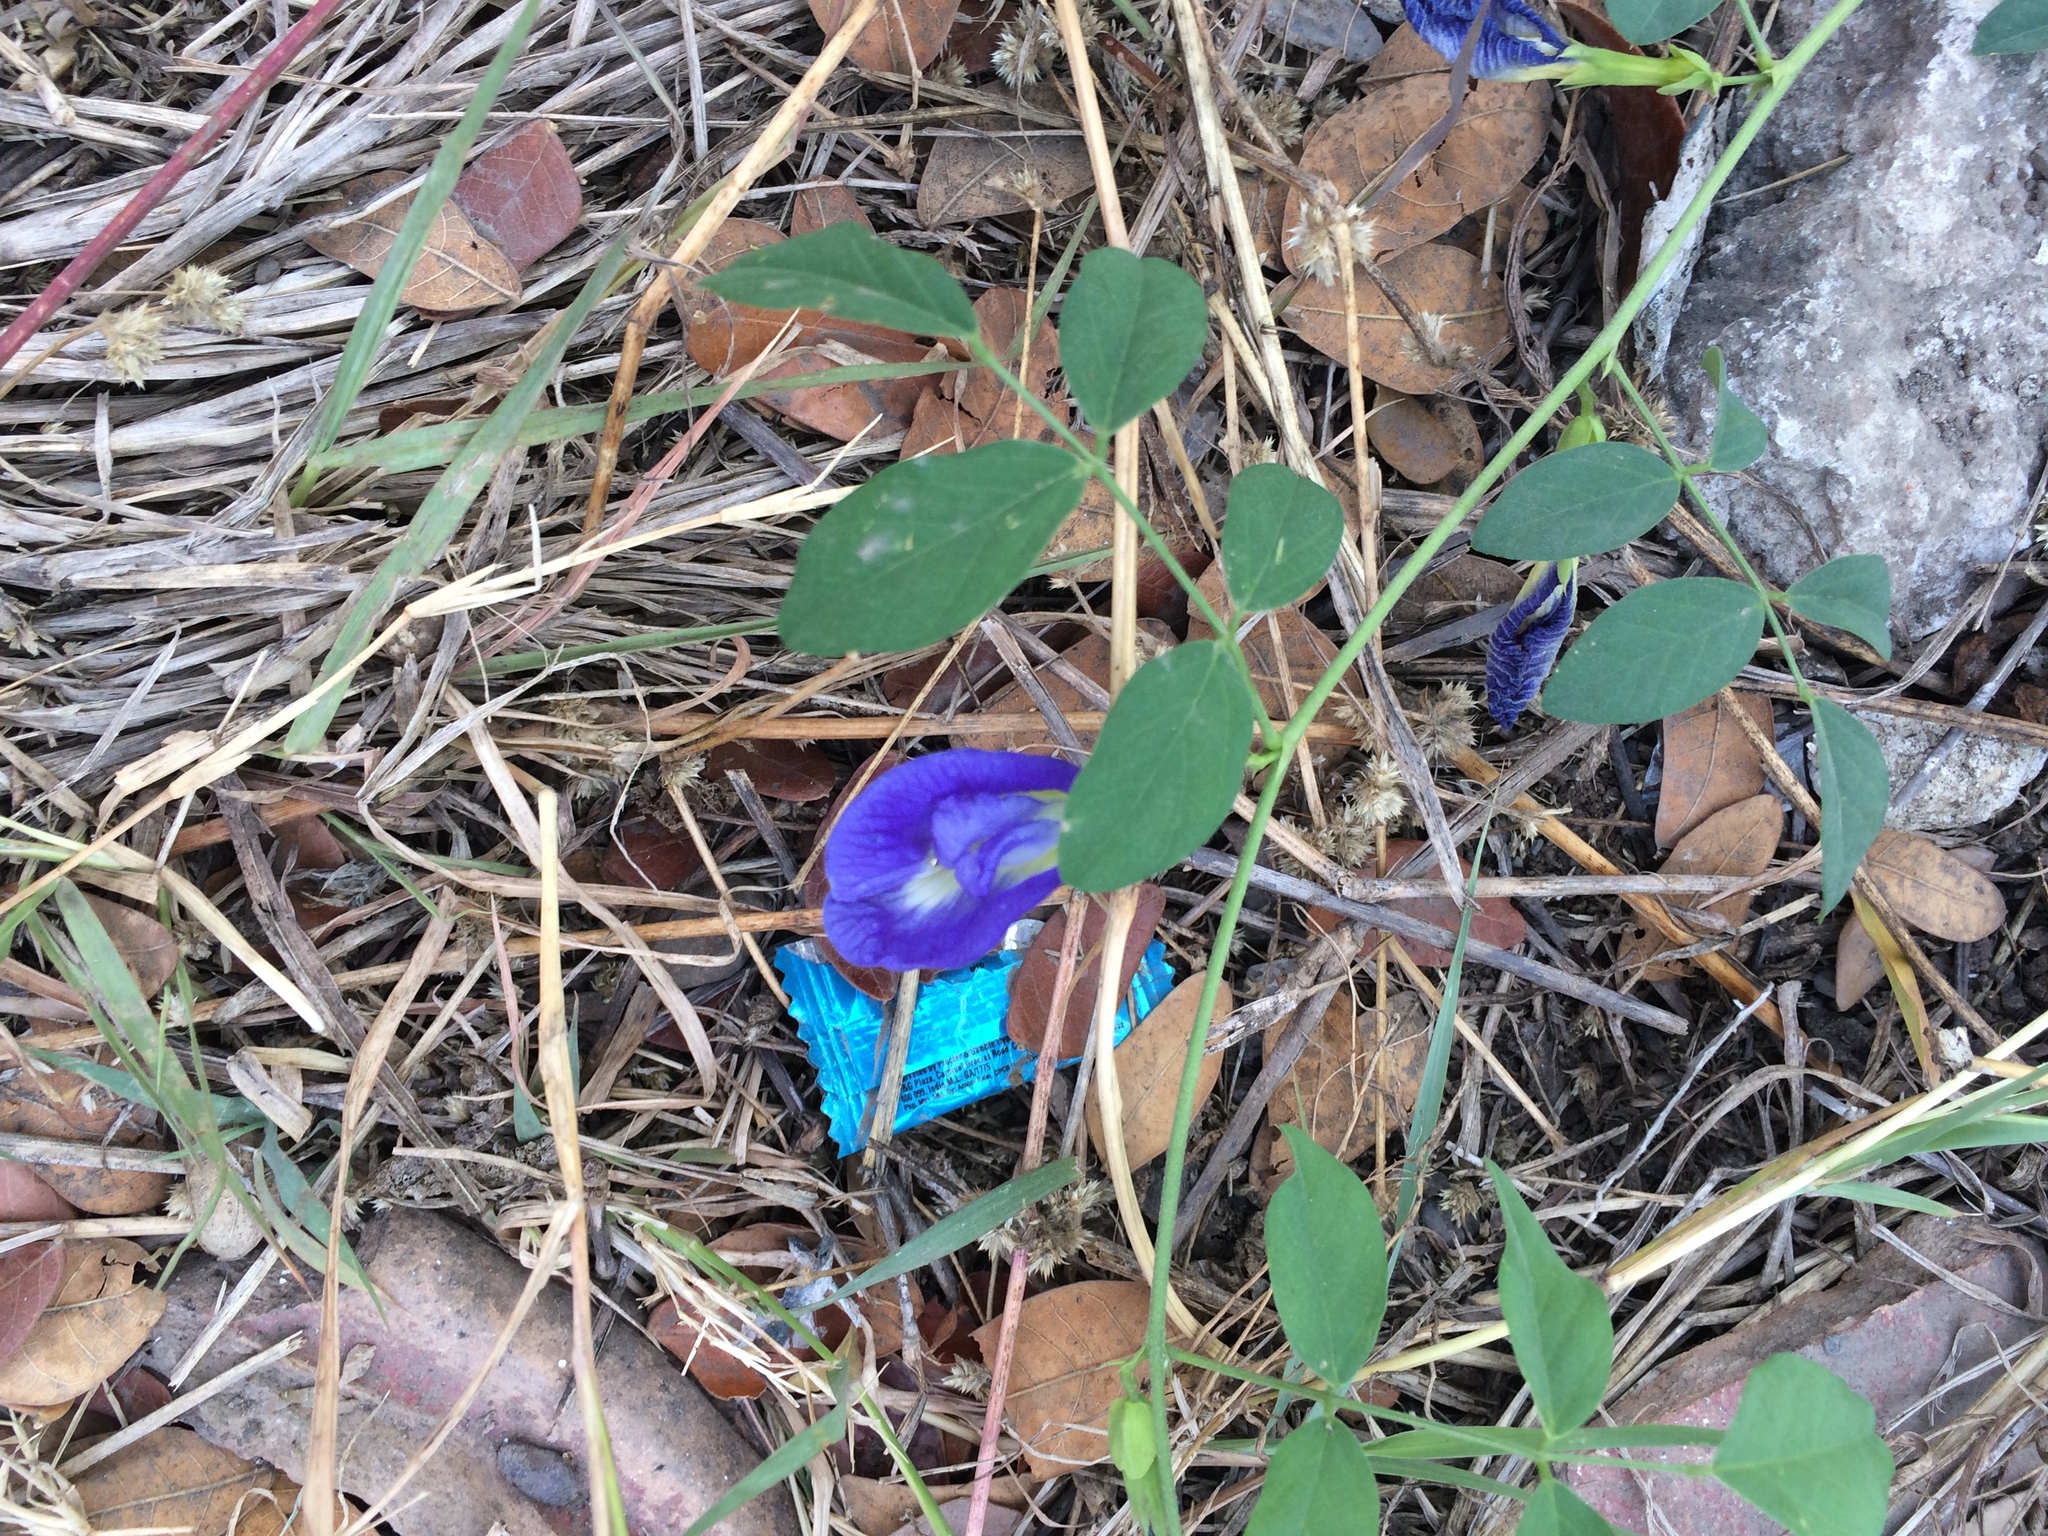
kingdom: Plantae
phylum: Tracheophyta
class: Magnoliopsida
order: Fabales
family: Fabaceae
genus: Clitoria
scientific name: Clitoria ternatea
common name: Asian pigeonwings
